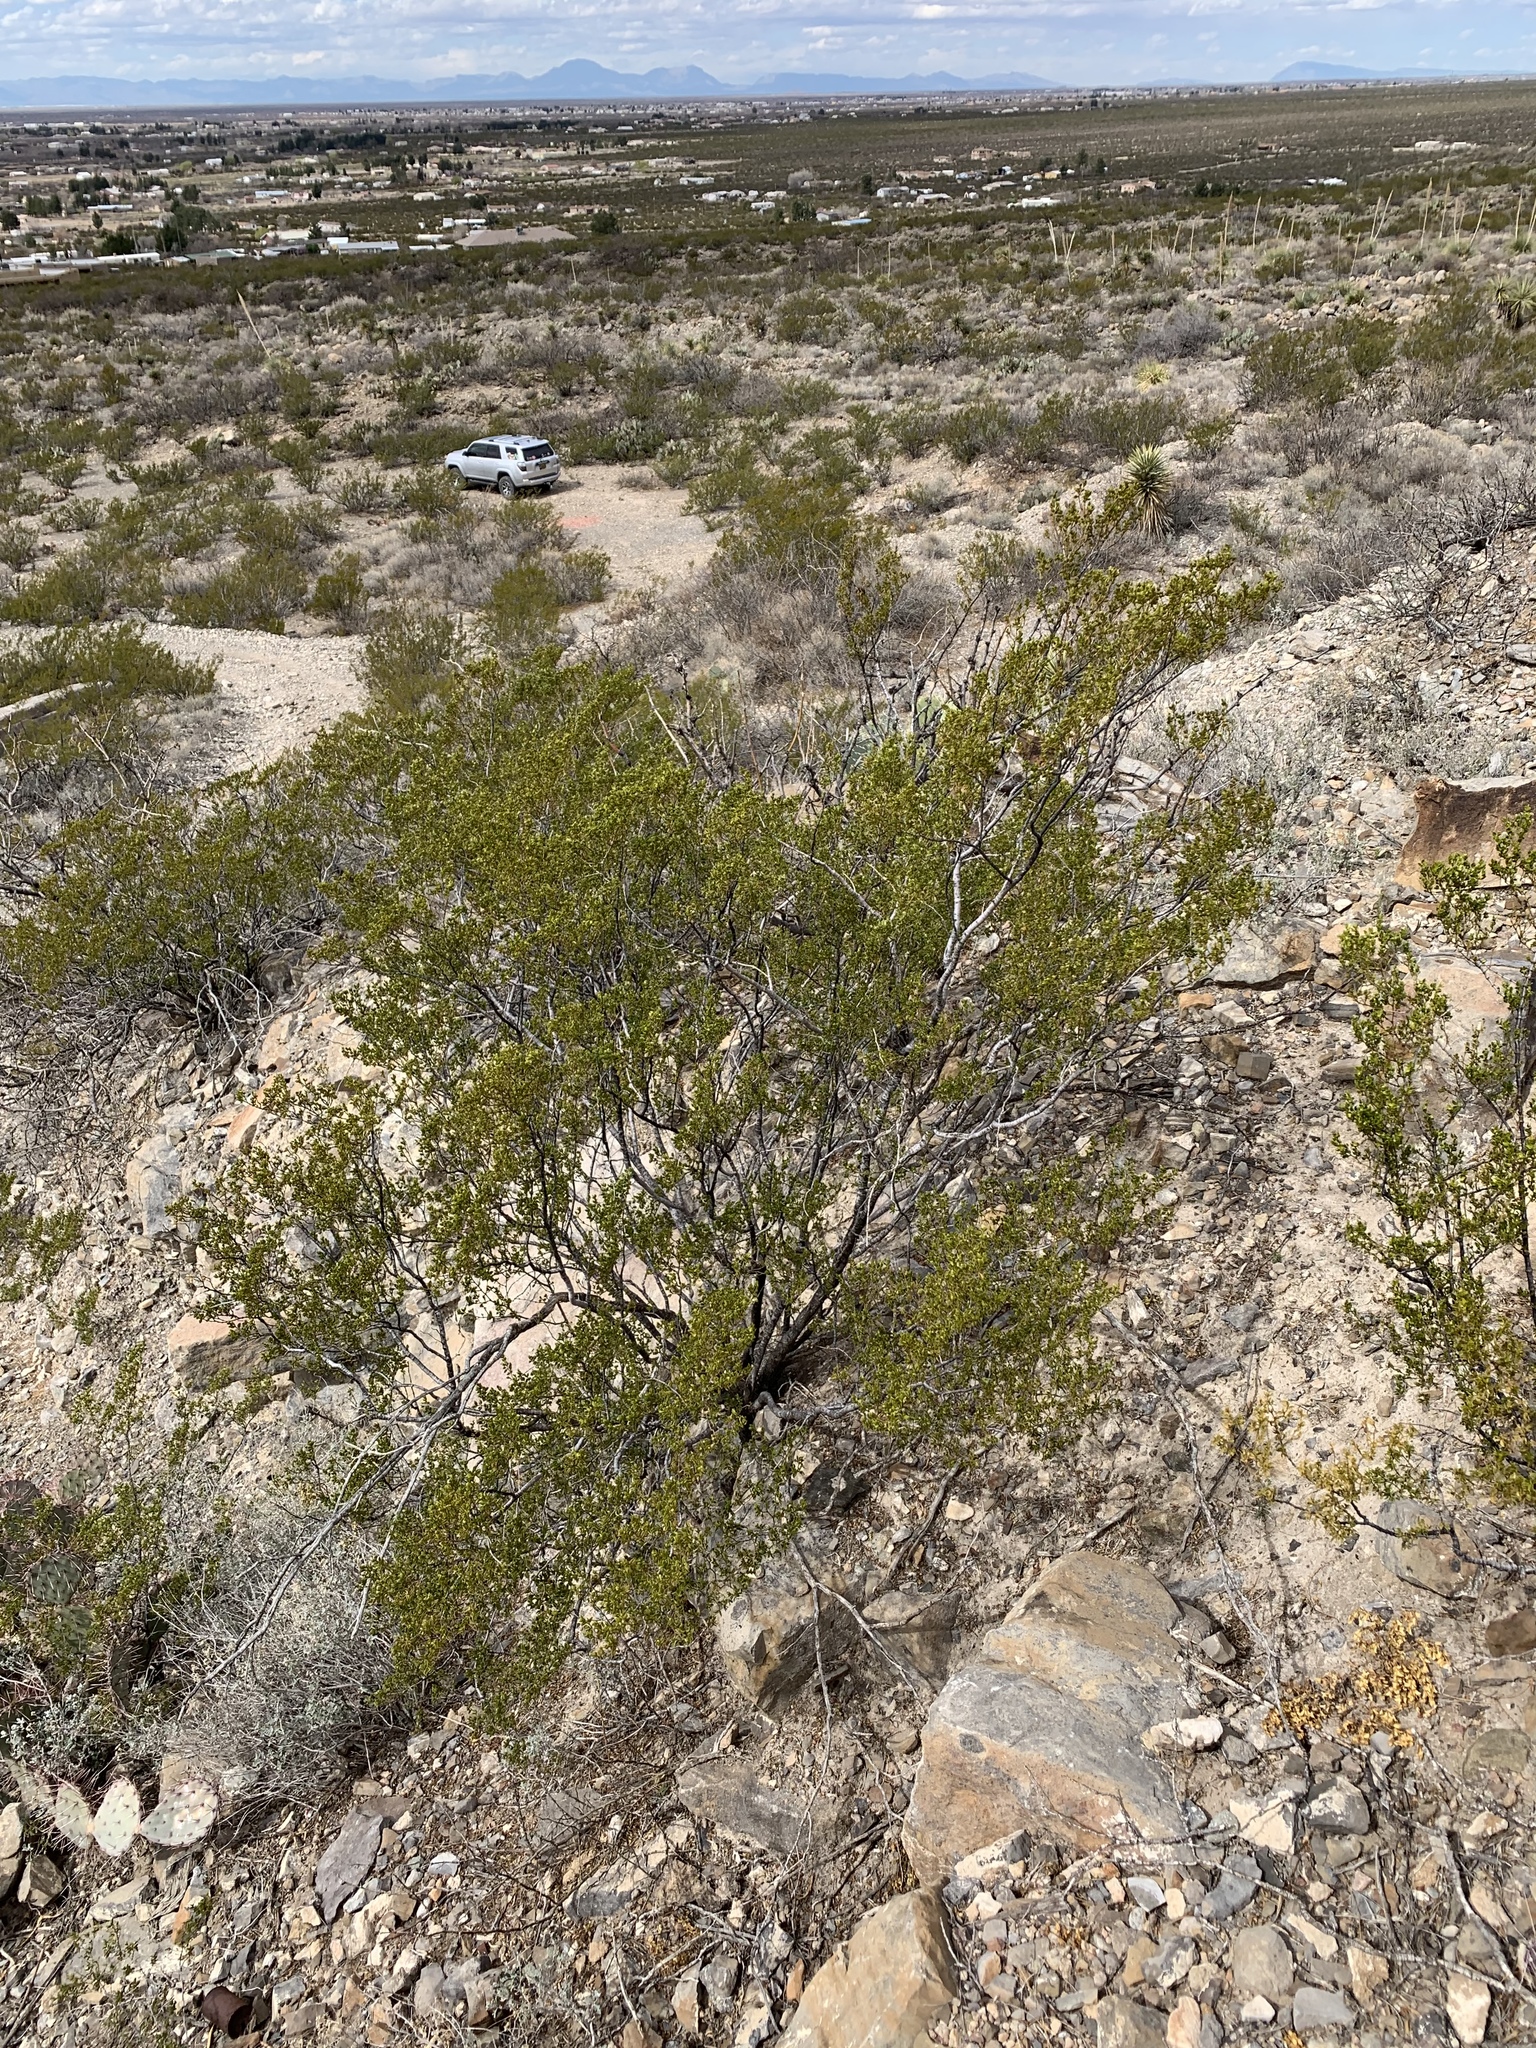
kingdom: Plantae
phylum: Tracheophyta
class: Magnoliopsida
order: Zygophyllales
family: Zygophyllaceae
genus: Larrea
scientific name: Larrea tridentata
